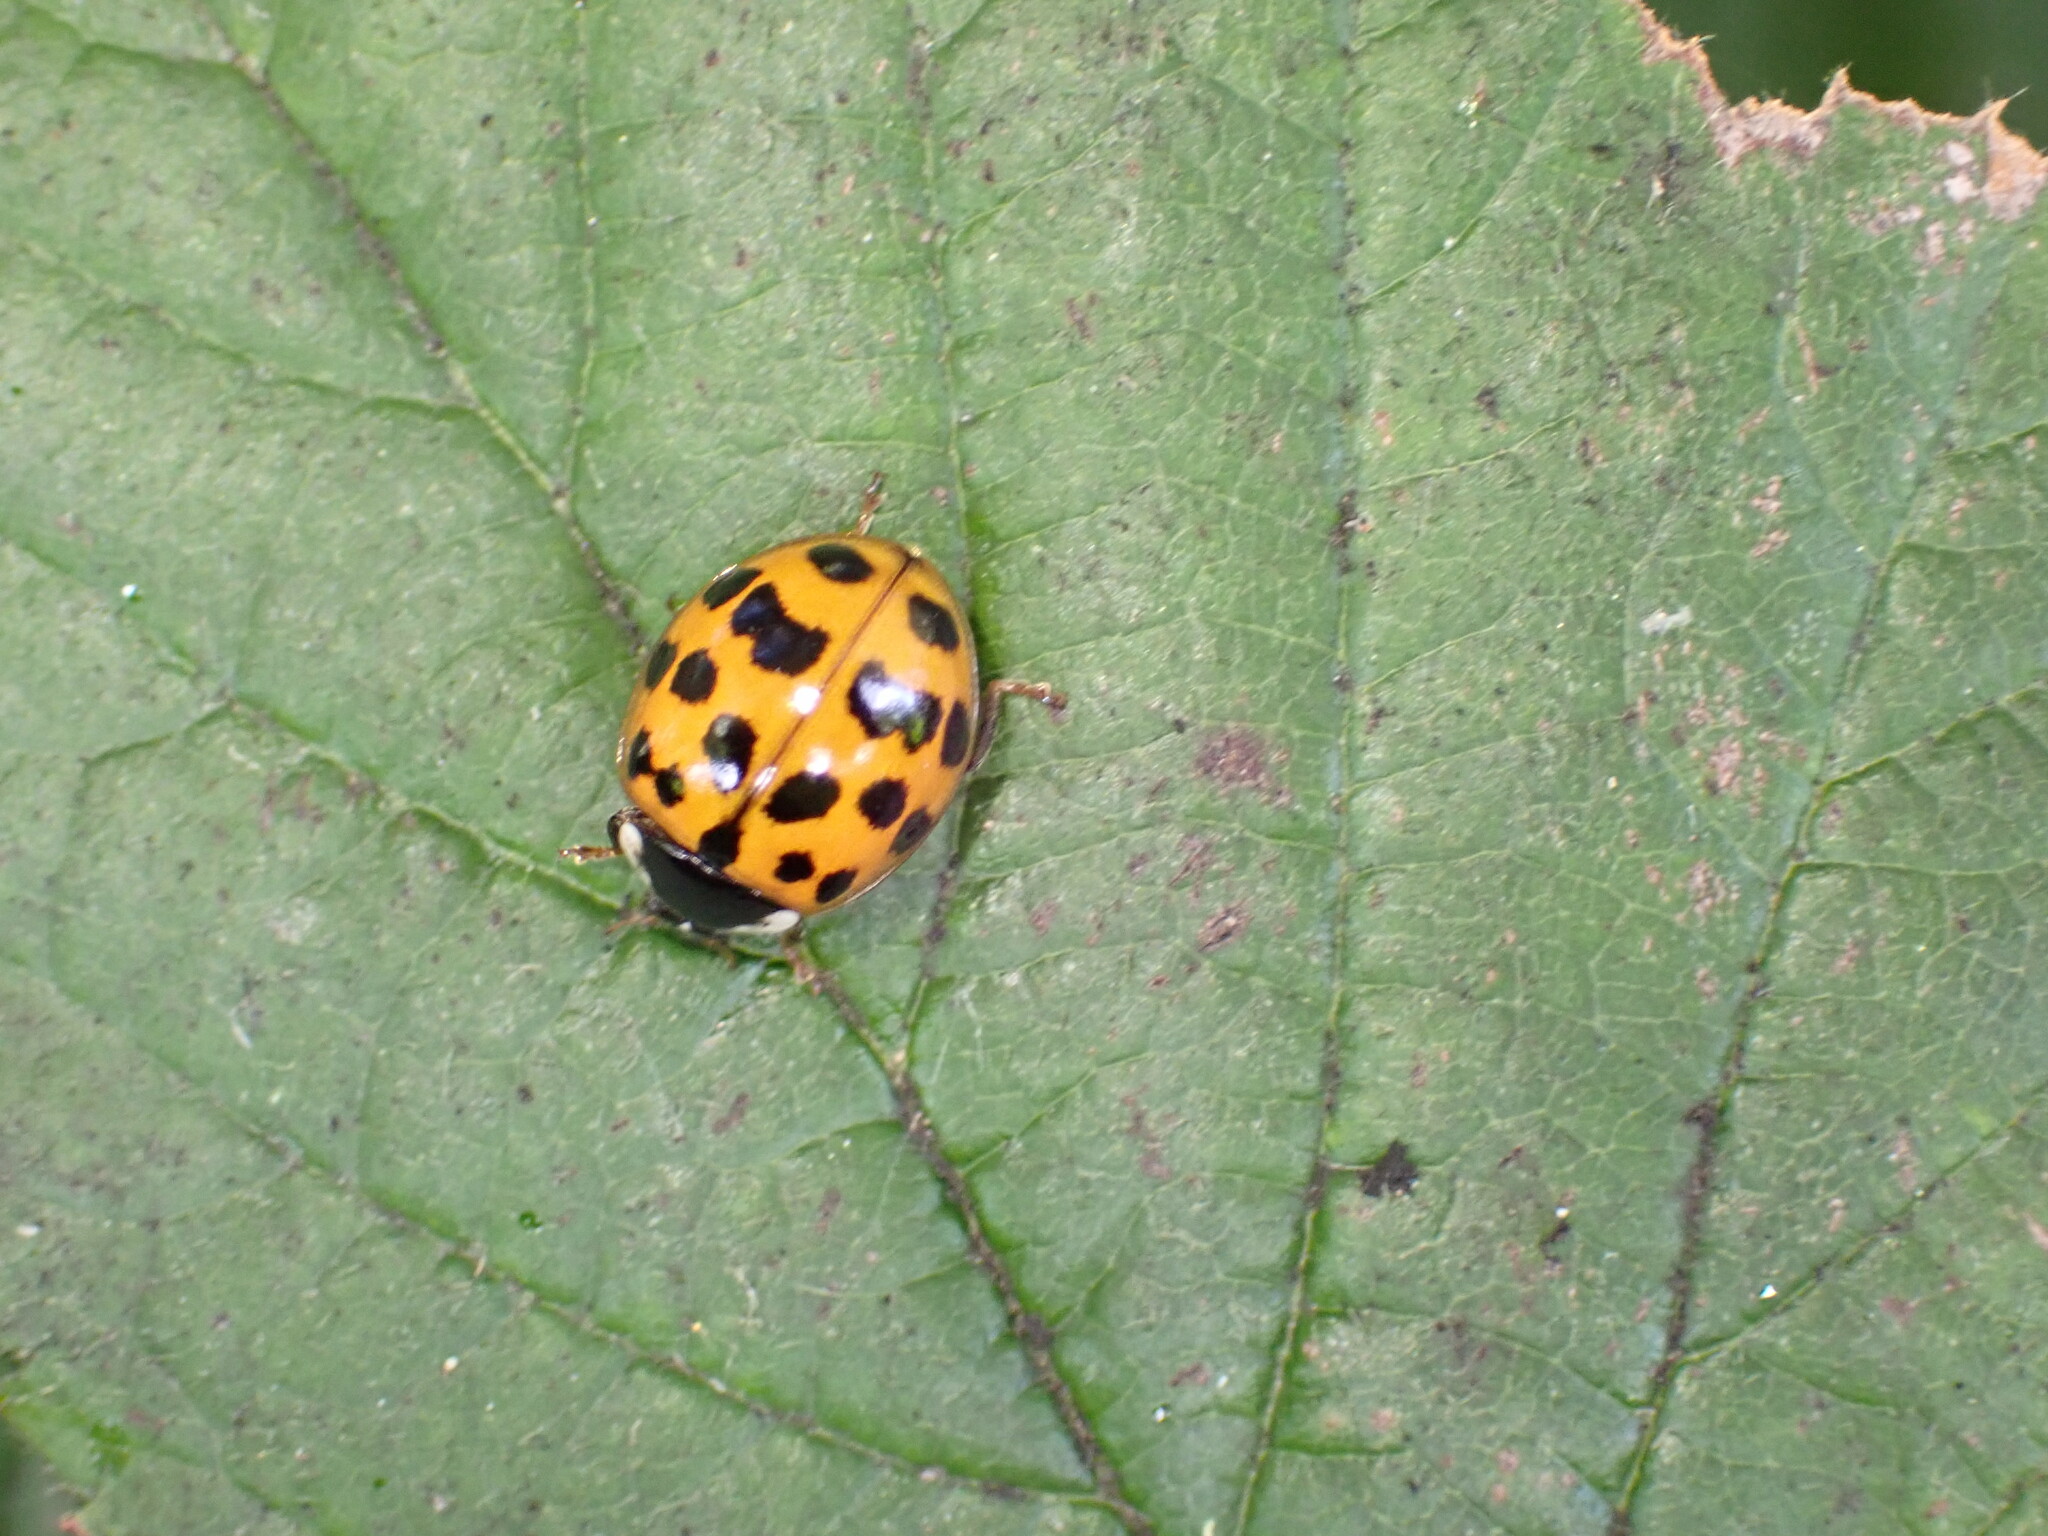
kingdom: Animalia
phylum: Arthropoda
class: Insecta
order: Coleoptera
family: Coccinellidae
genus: Harmonia
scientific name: Harmonia axyridis
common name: Harlequin ladybird
